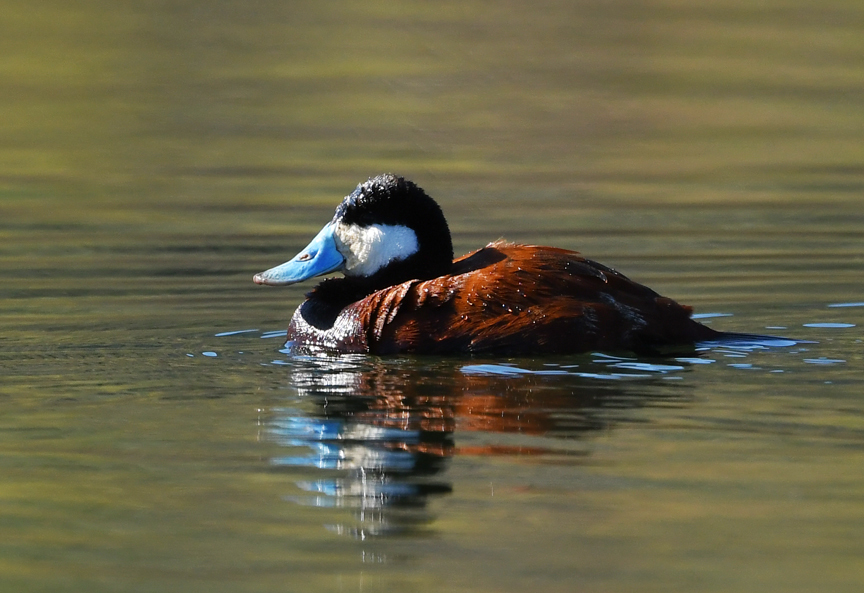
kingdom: Animalia
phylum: Chordata
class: Aves
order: Anseriformes
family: Anatidae
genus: Oxyura
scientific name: Oxyura jamaicensis
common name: Ruddy duck
